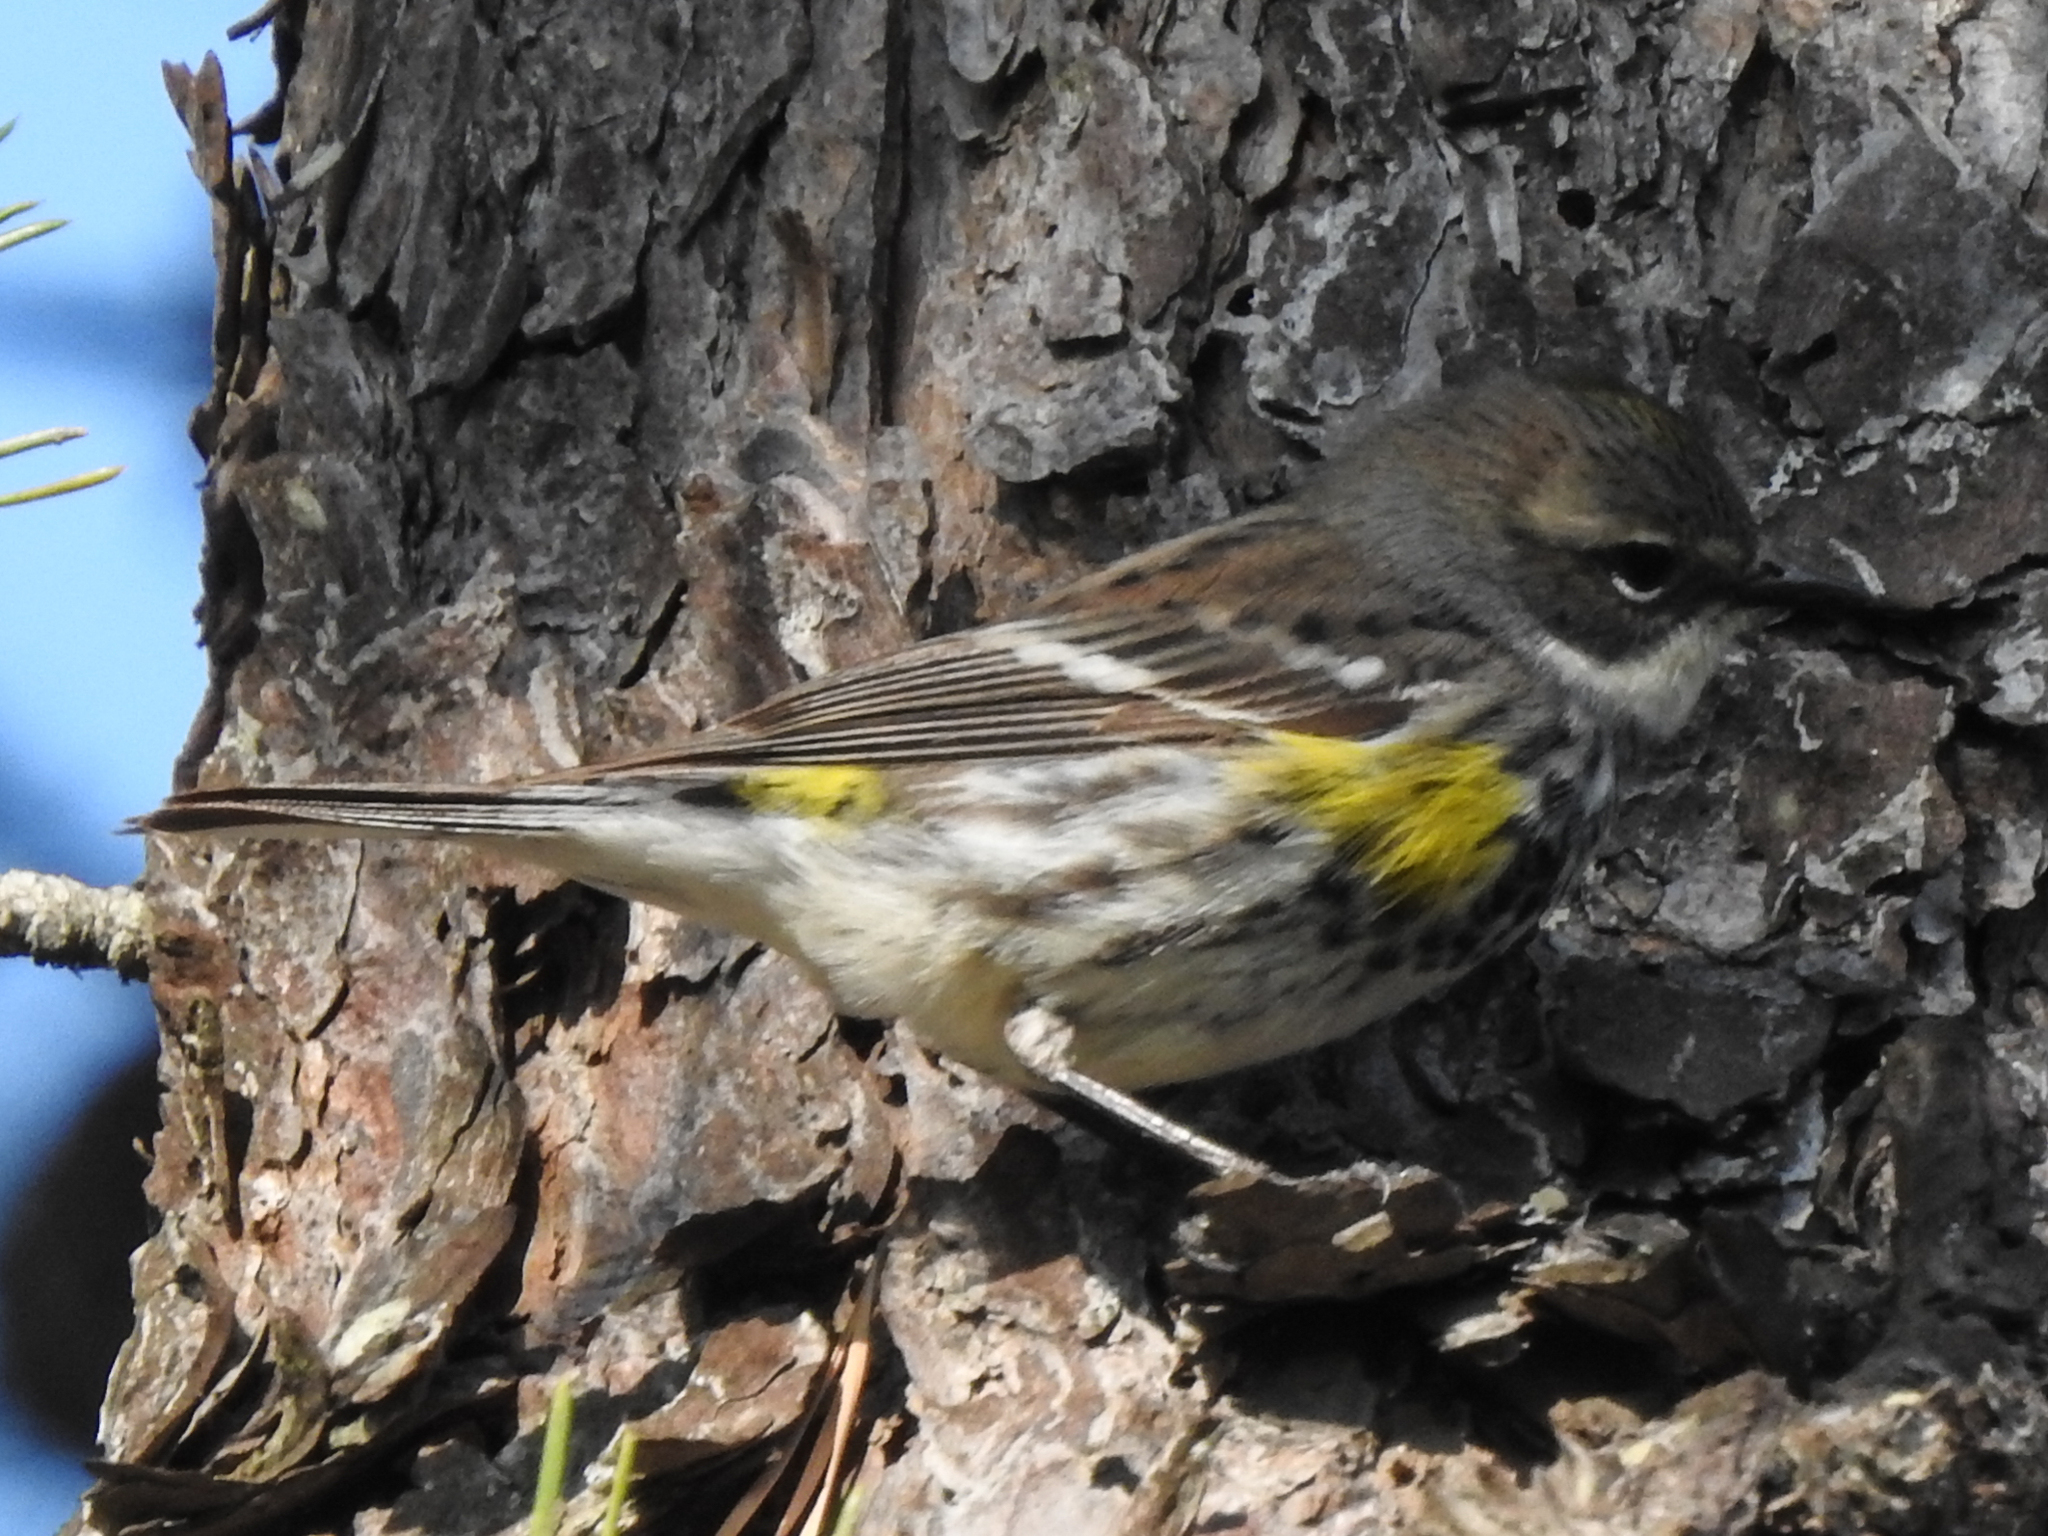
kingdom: Animalia
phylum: Chordata
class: Aves
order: Passeriformes
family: Parulidae
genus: Setophaga
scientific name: Setophaga coronata
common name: Myrtle warbler
